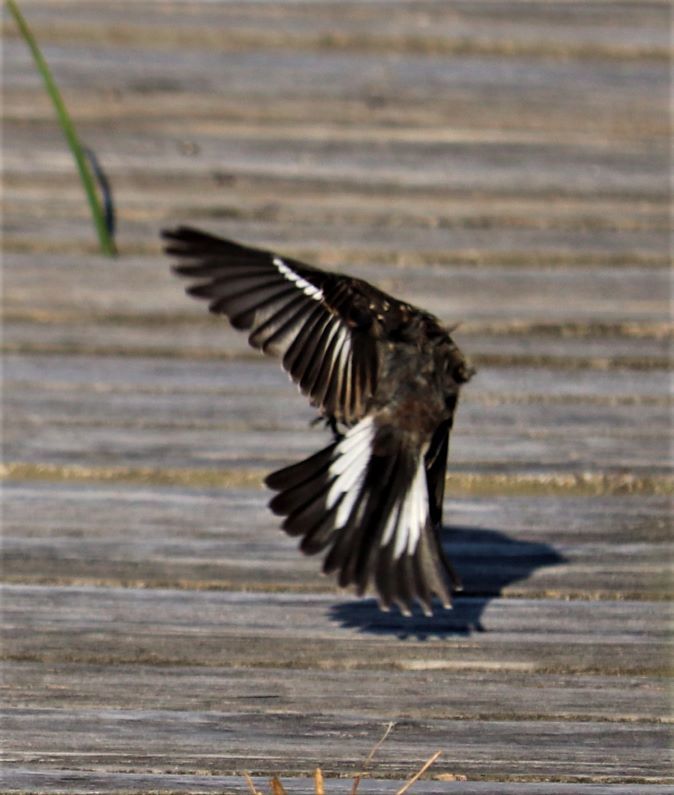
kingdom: Animalia
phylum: Chordata
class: Aves
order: Passeriformes
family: Muscicapidae
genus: Sigelus
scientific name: Sigelus silens
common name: Fiscal flycatcher
